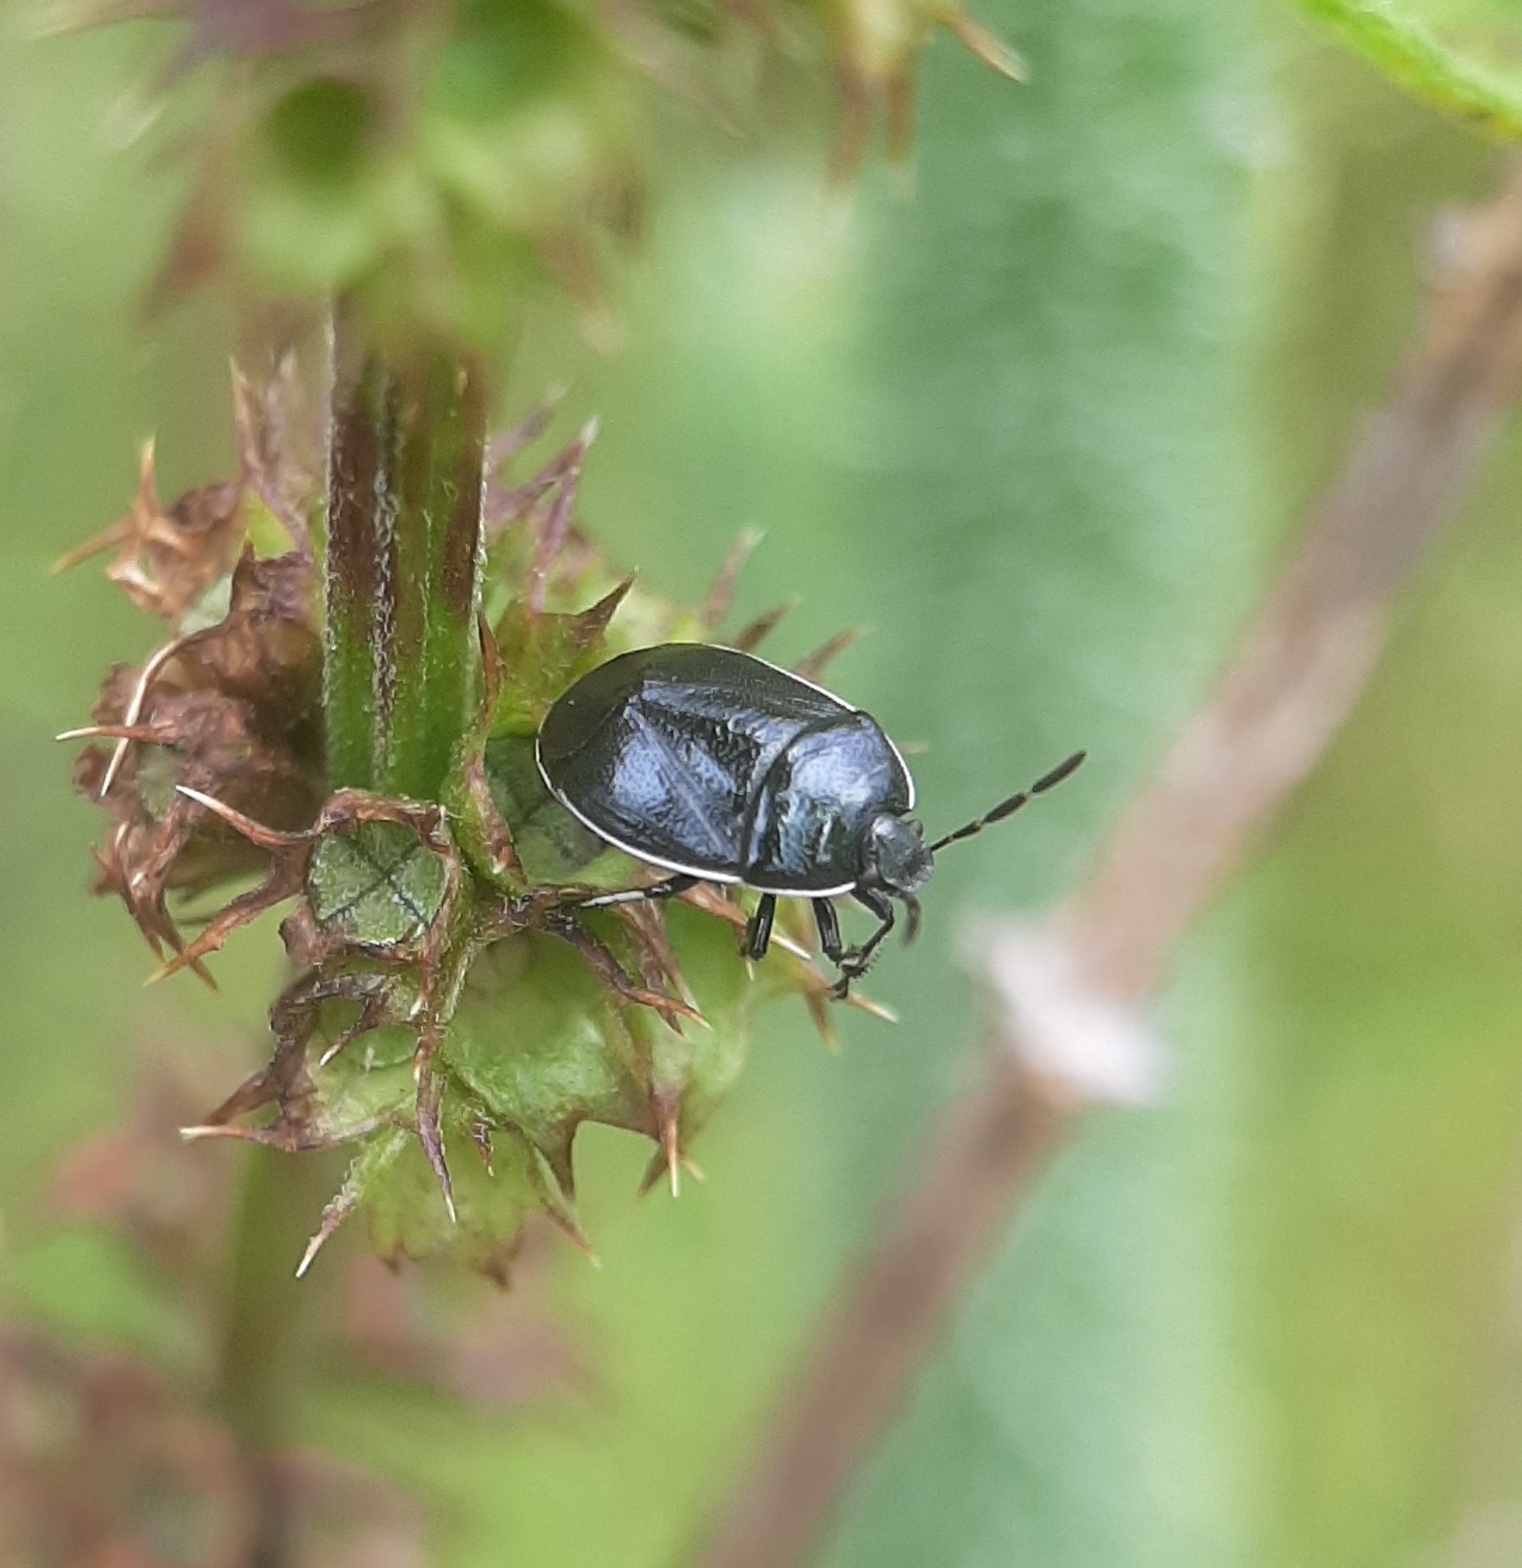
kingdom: Animalia
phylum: Arthropoda
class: Insecta
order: Hemiptera
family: Cydnidae
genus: Sehirus
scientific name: Sehirus cinctus
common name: White-margined burrower bug
